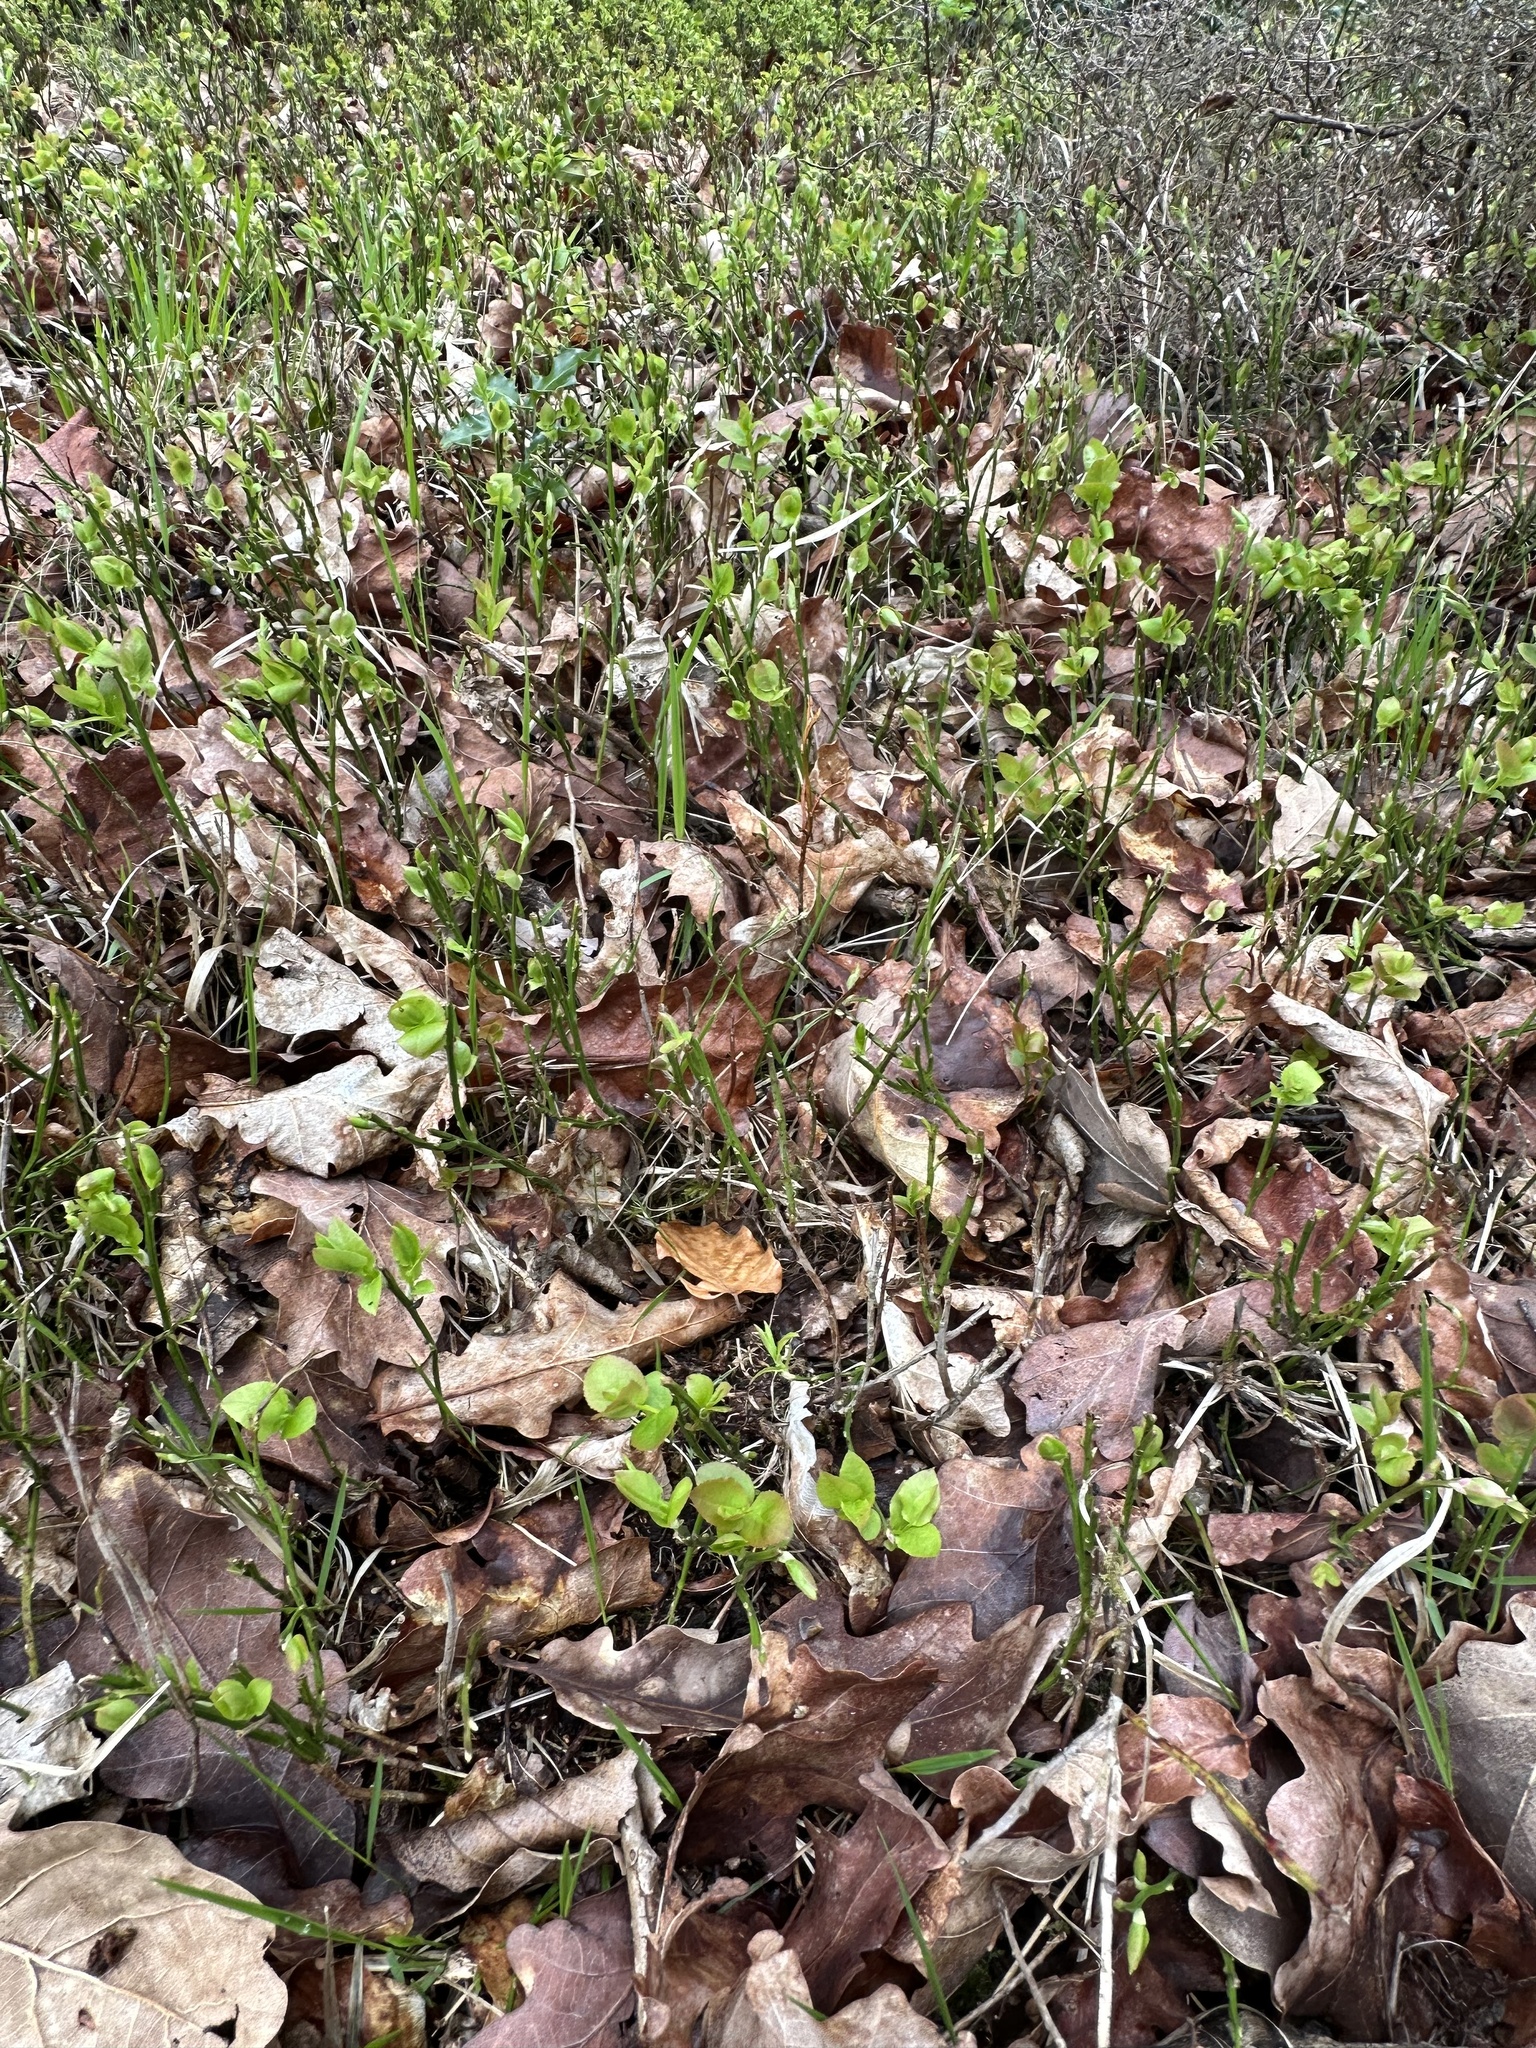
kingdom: Plantae
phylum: Tracheophyta
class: Magnoliopsida
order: Ericales
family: Ericaceae
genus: Vaccinium
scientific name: Vaccinium myrtillus
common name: Bilberry
